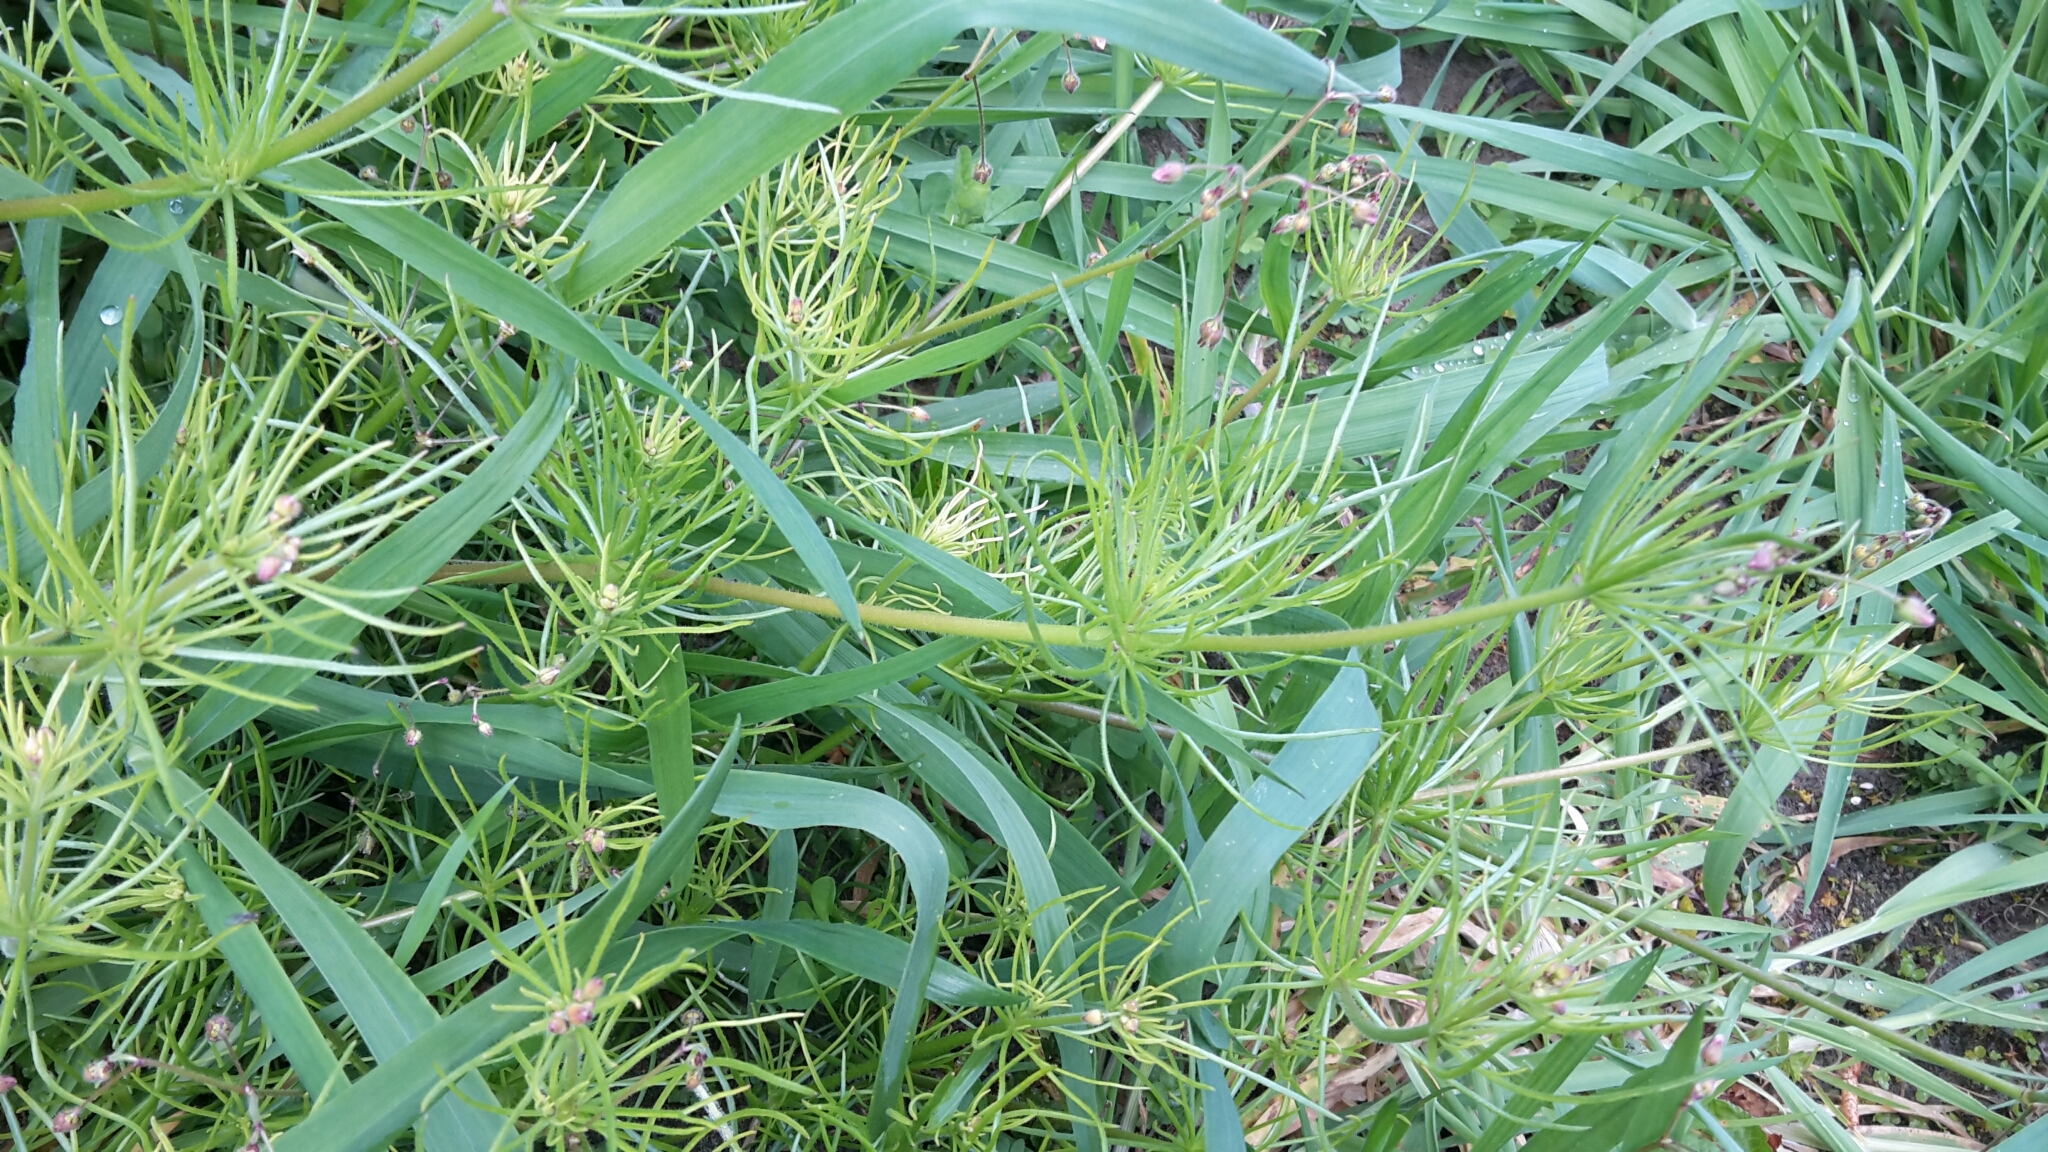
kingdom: Plantae
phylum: Tracheophyta
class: Magnoliopsida
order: Caryophyllales
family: Caryophyllaceae
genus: Spergula
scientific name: Spergula arvensis
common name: Corn spurrey
